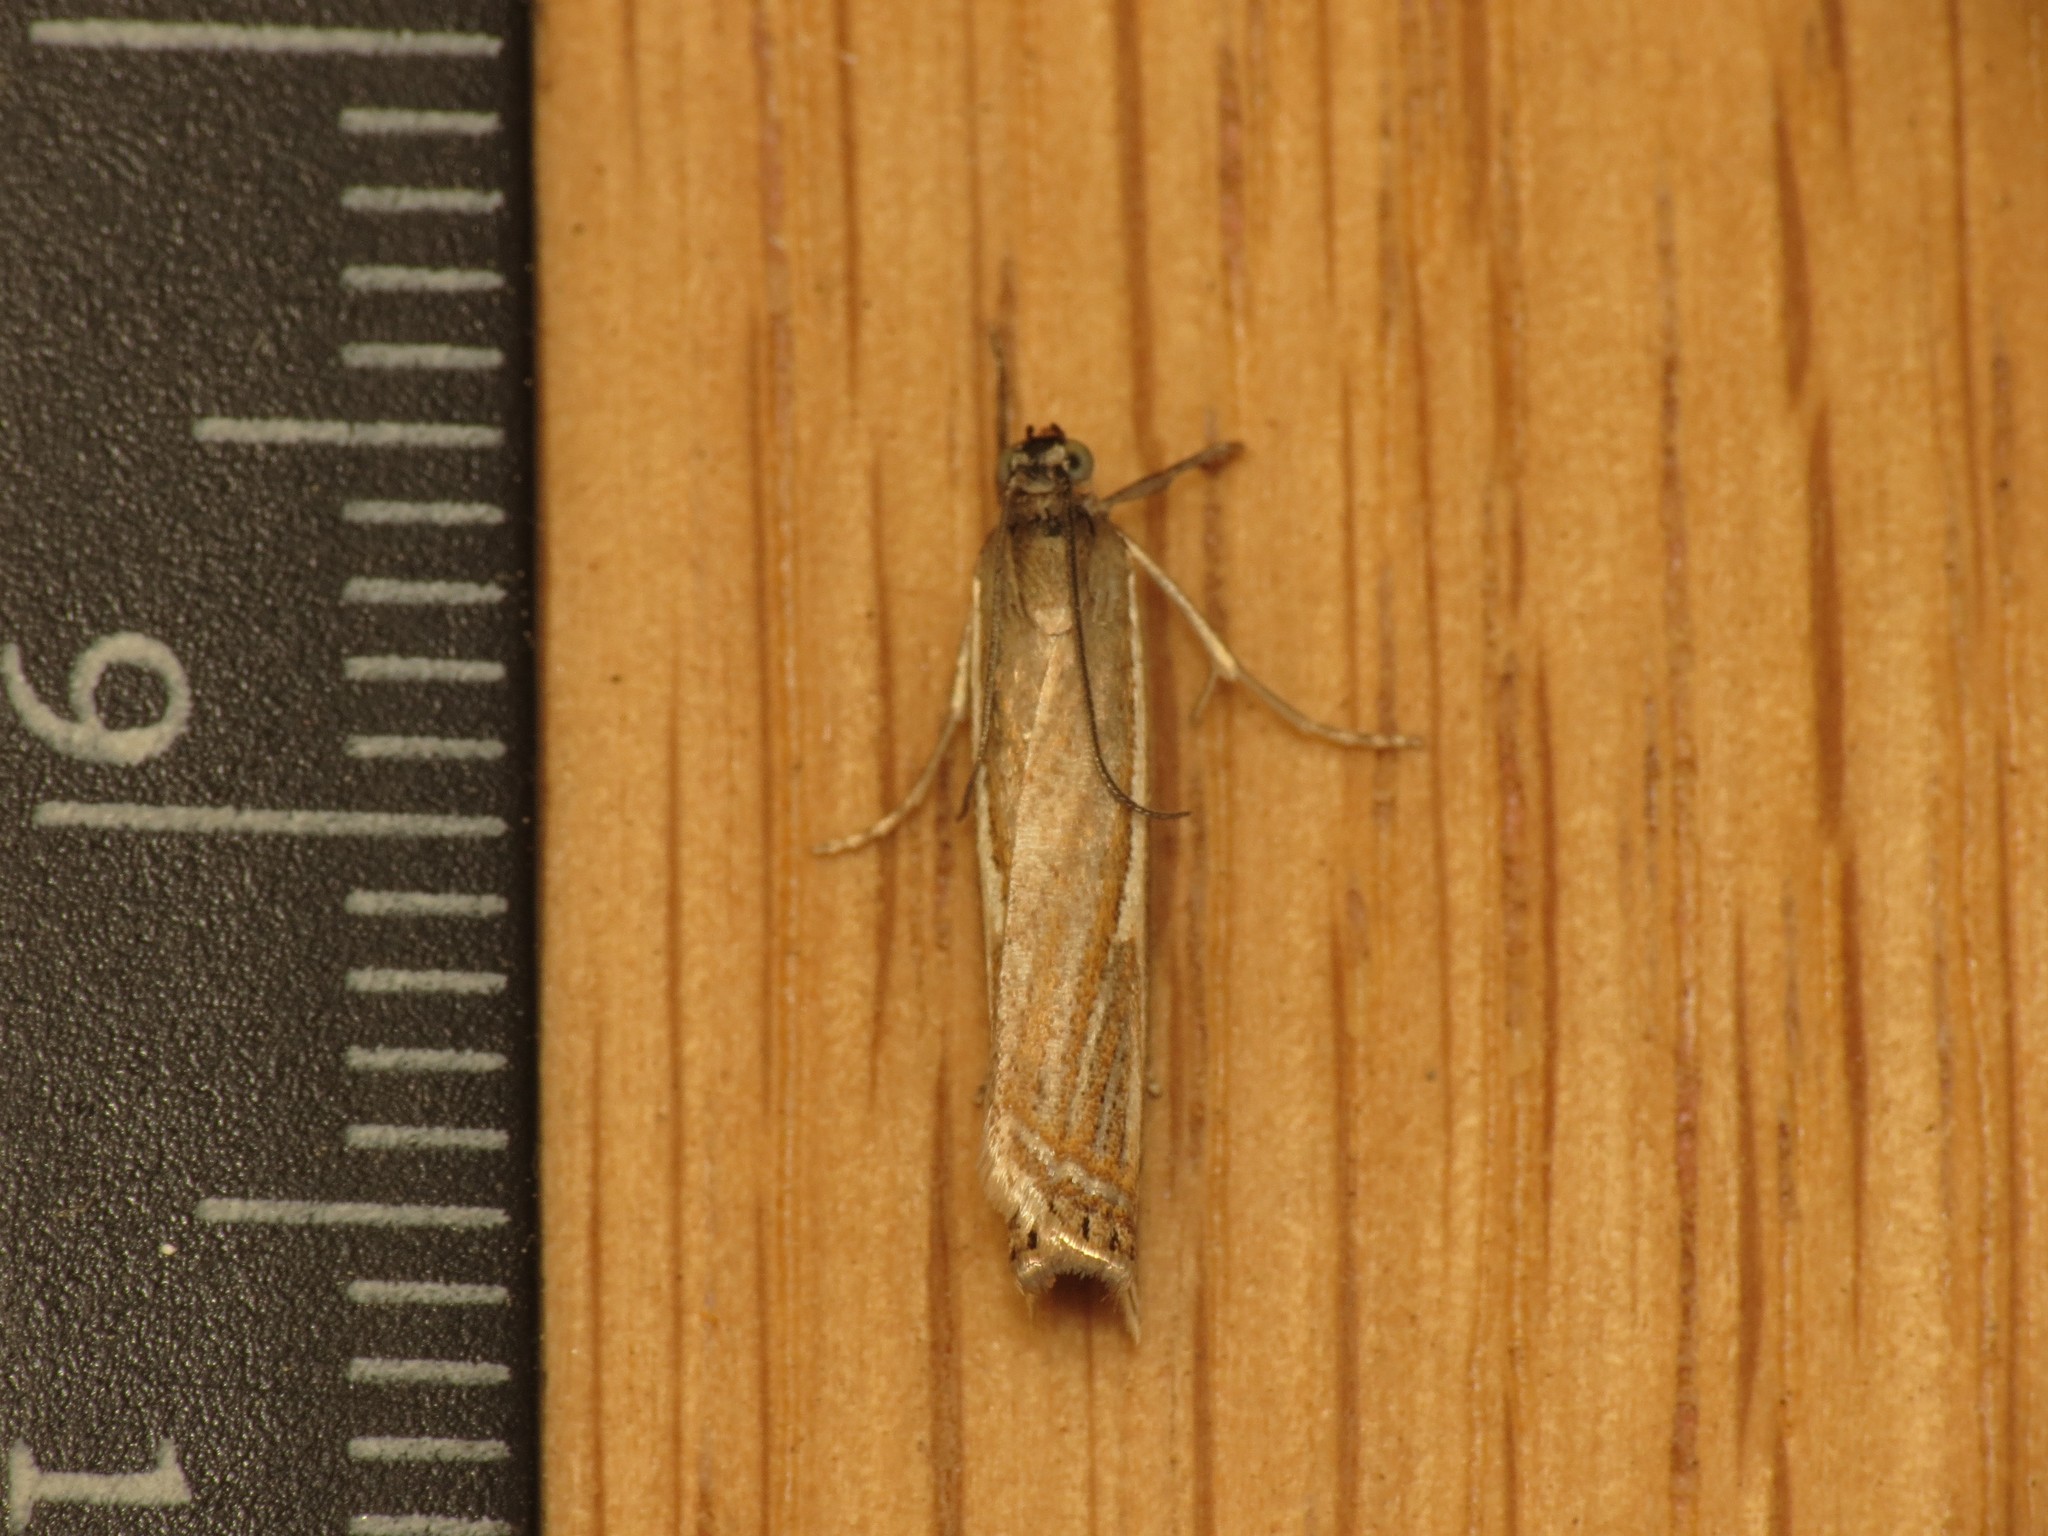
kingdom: Animalia
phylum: Arthropoda
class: Insecta
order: Lepidoptera
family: Crambidae
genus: Crambus
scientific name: Crambus nemorella
